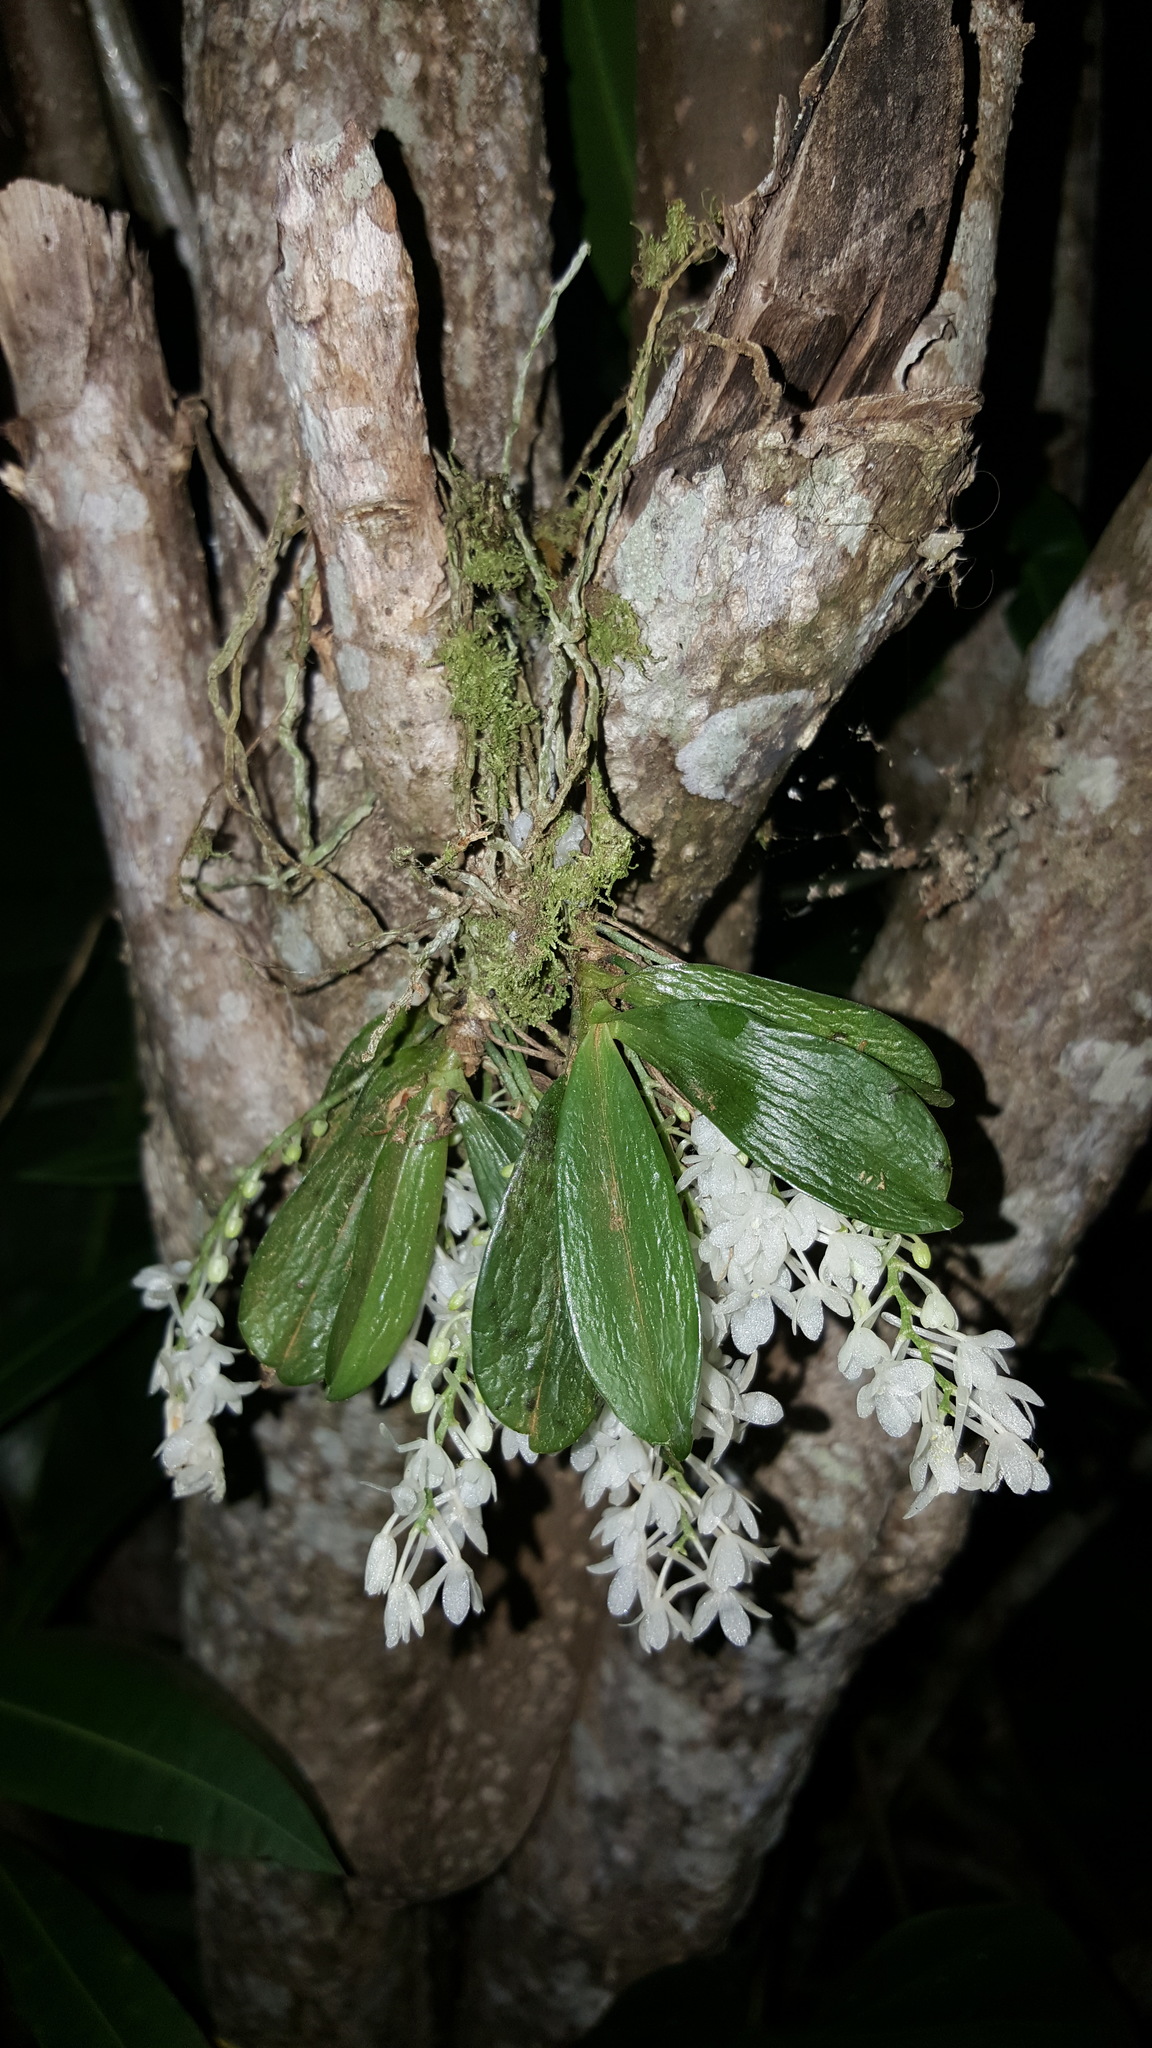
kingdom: Plantae
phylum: Tracheophyta
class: Liliopsida
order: Asparagales
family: Orchidaceae
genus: Aerangis
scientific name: Aerangis hyaloides
